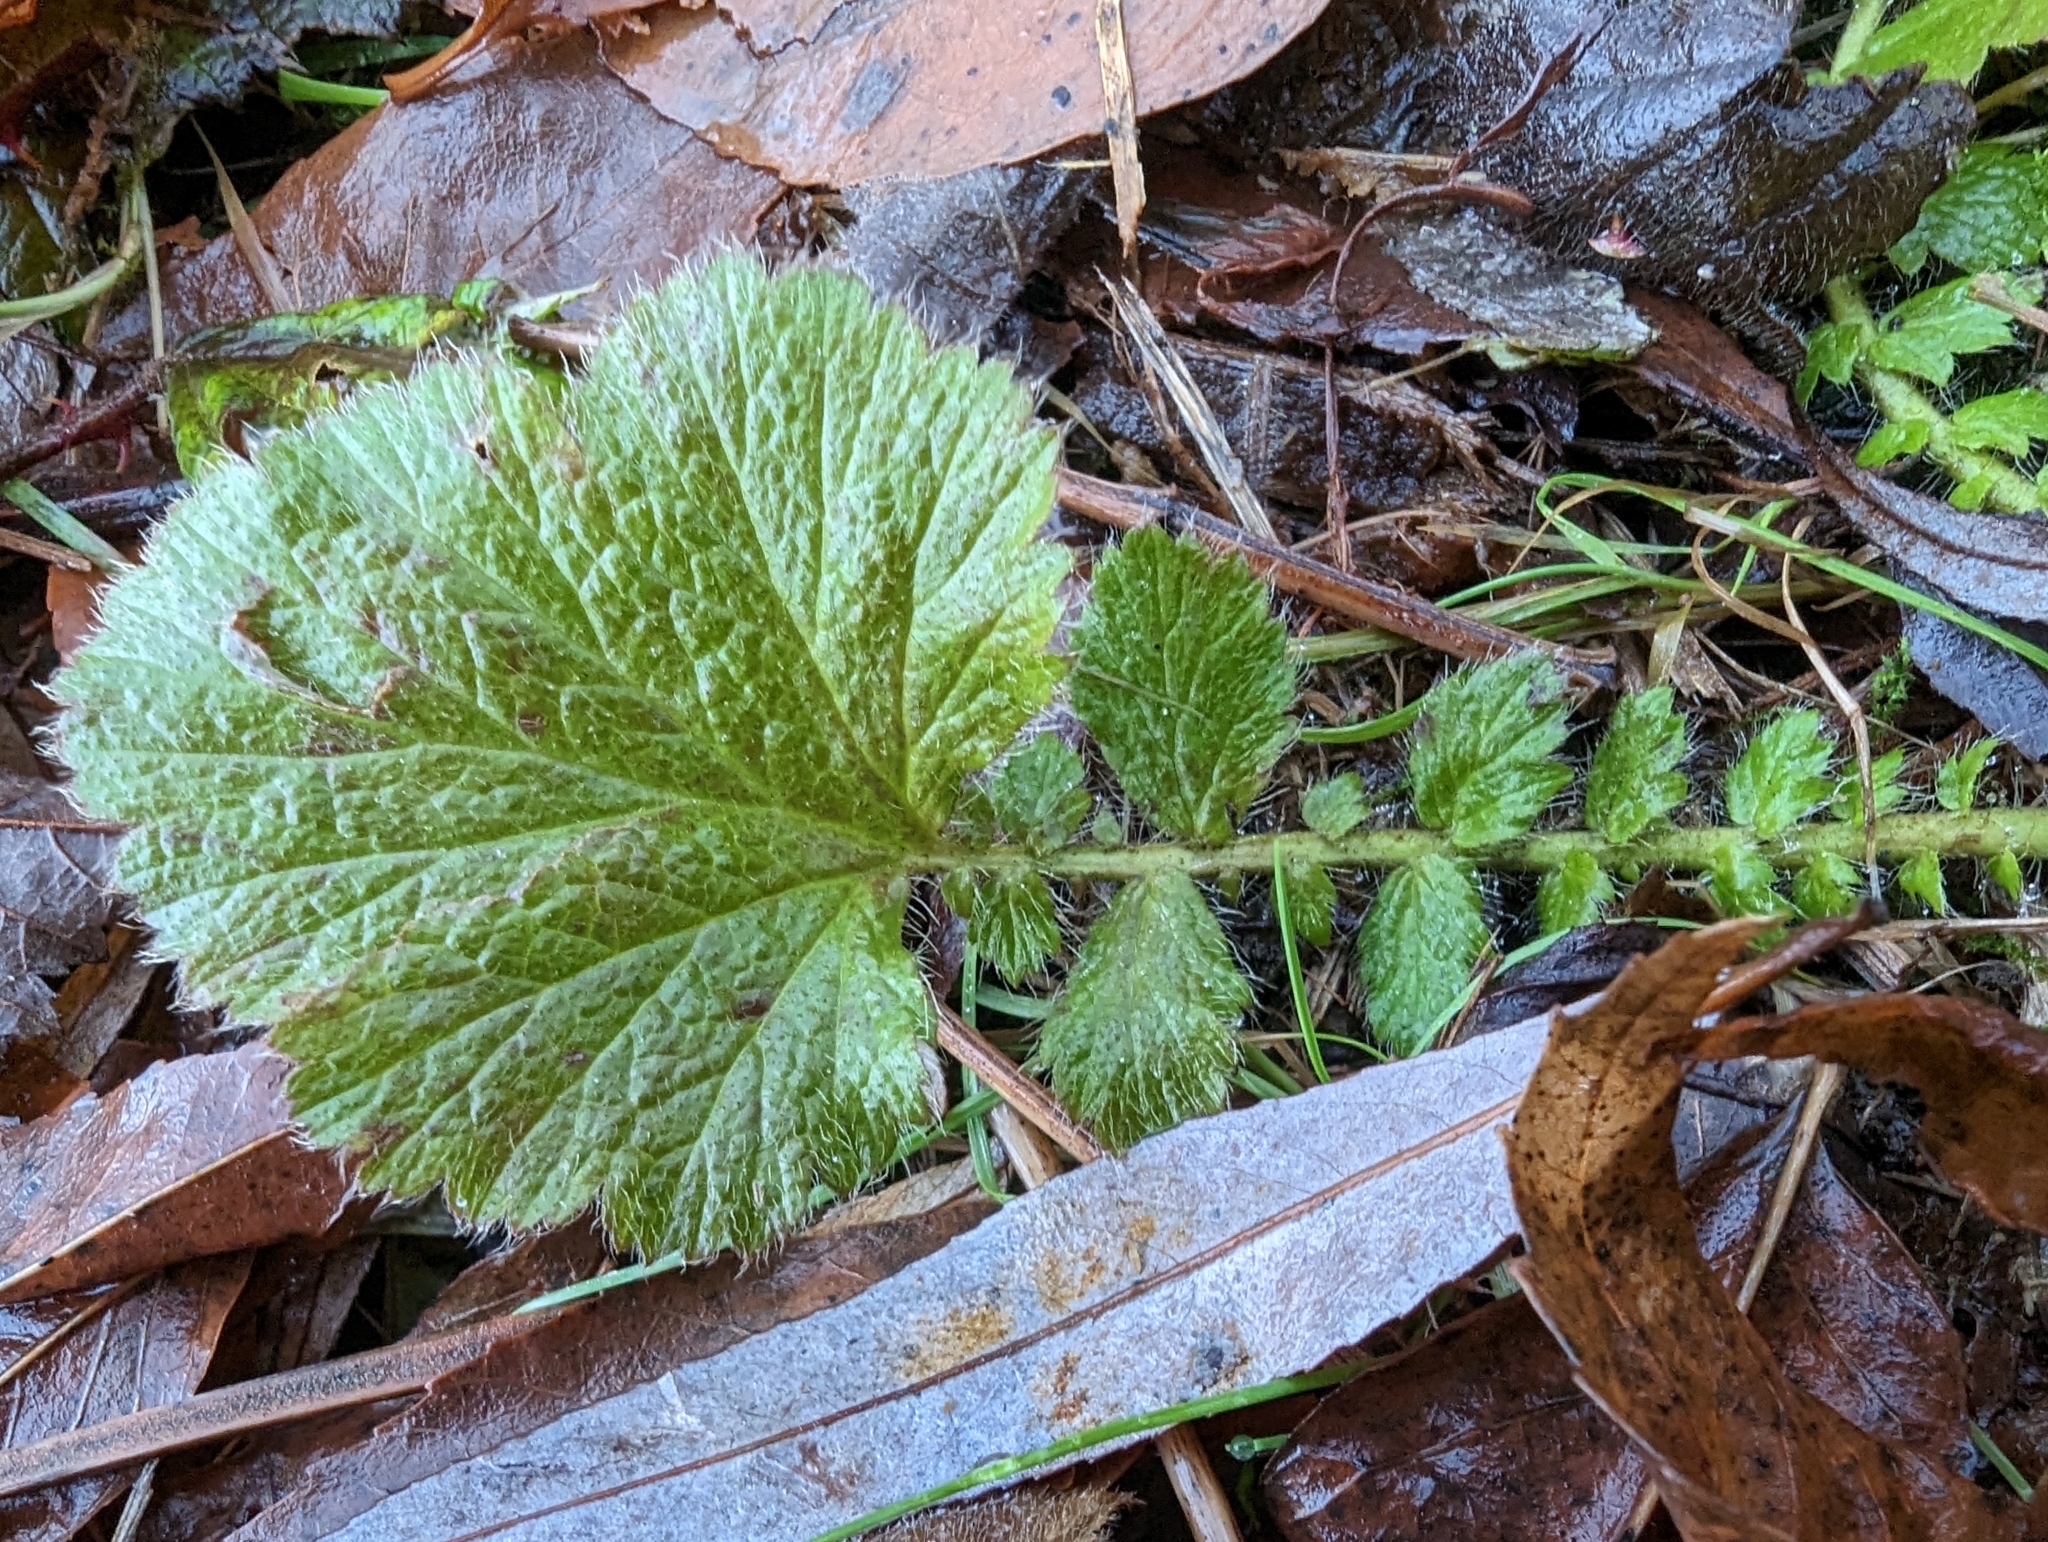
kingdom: Plantae
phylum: Tracheophyta
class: Magnoliopsida
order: Rosales
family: Rosaceae
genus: Geum
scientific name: Geum macrophyllum
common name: Large-leaved avens
